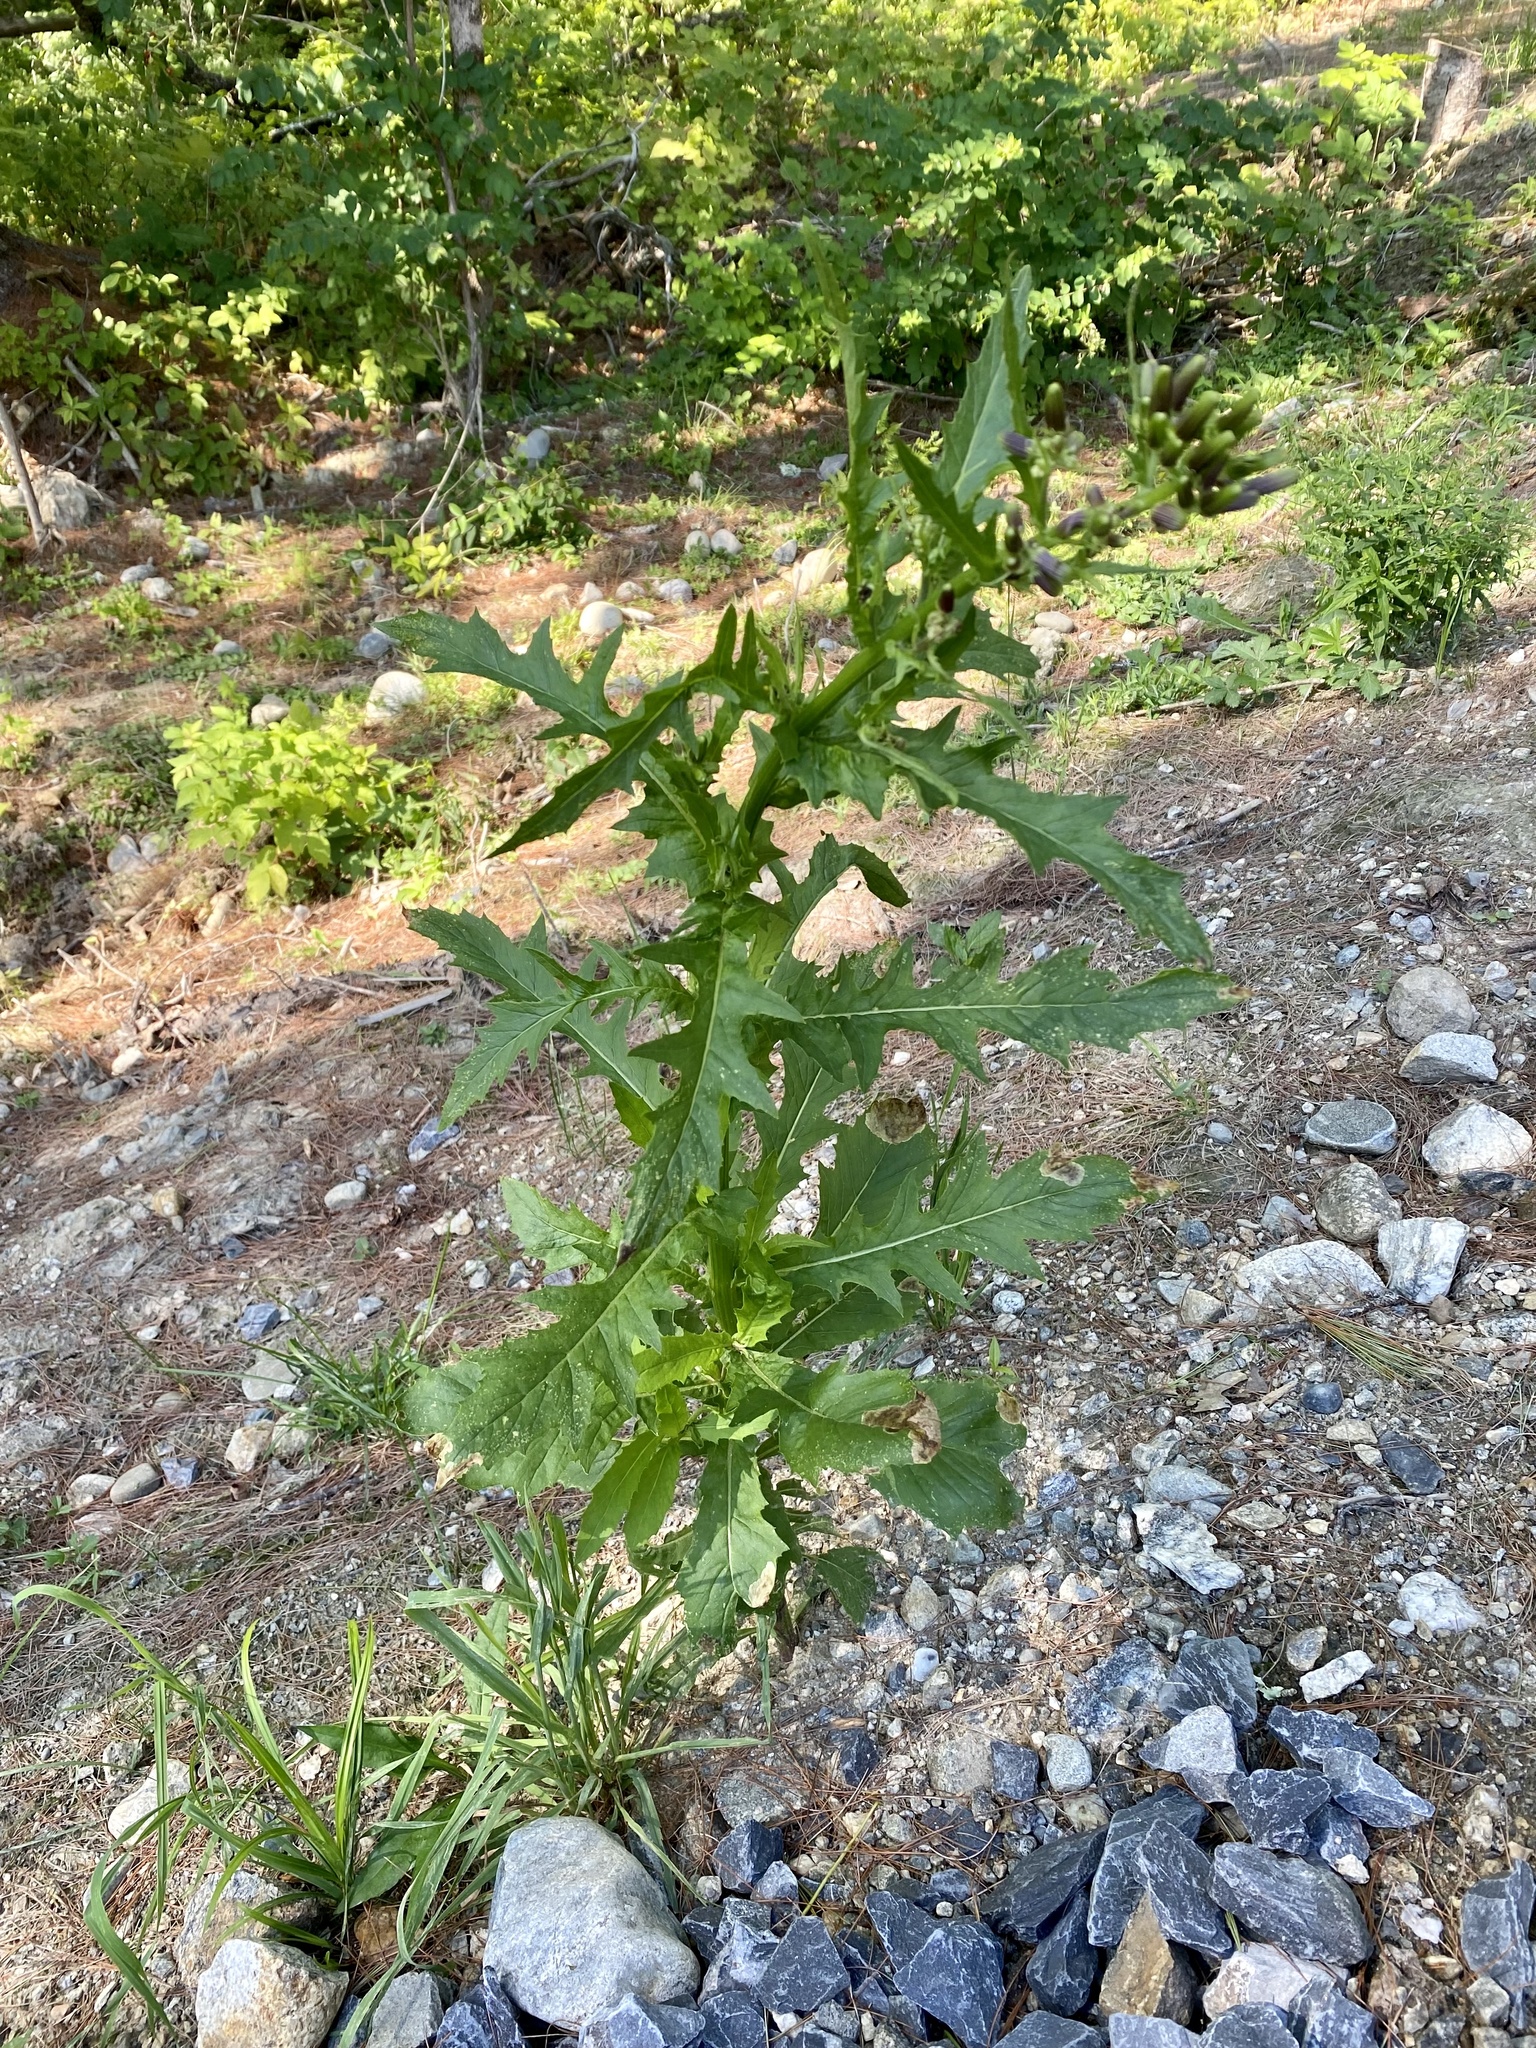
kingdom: Plantae
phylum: Tracheophyta
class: Magnoliopsida
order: Asterales
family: Asteraceae
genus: Erechtites
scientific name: Erechtites hieraciifolius
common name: American burnweed
